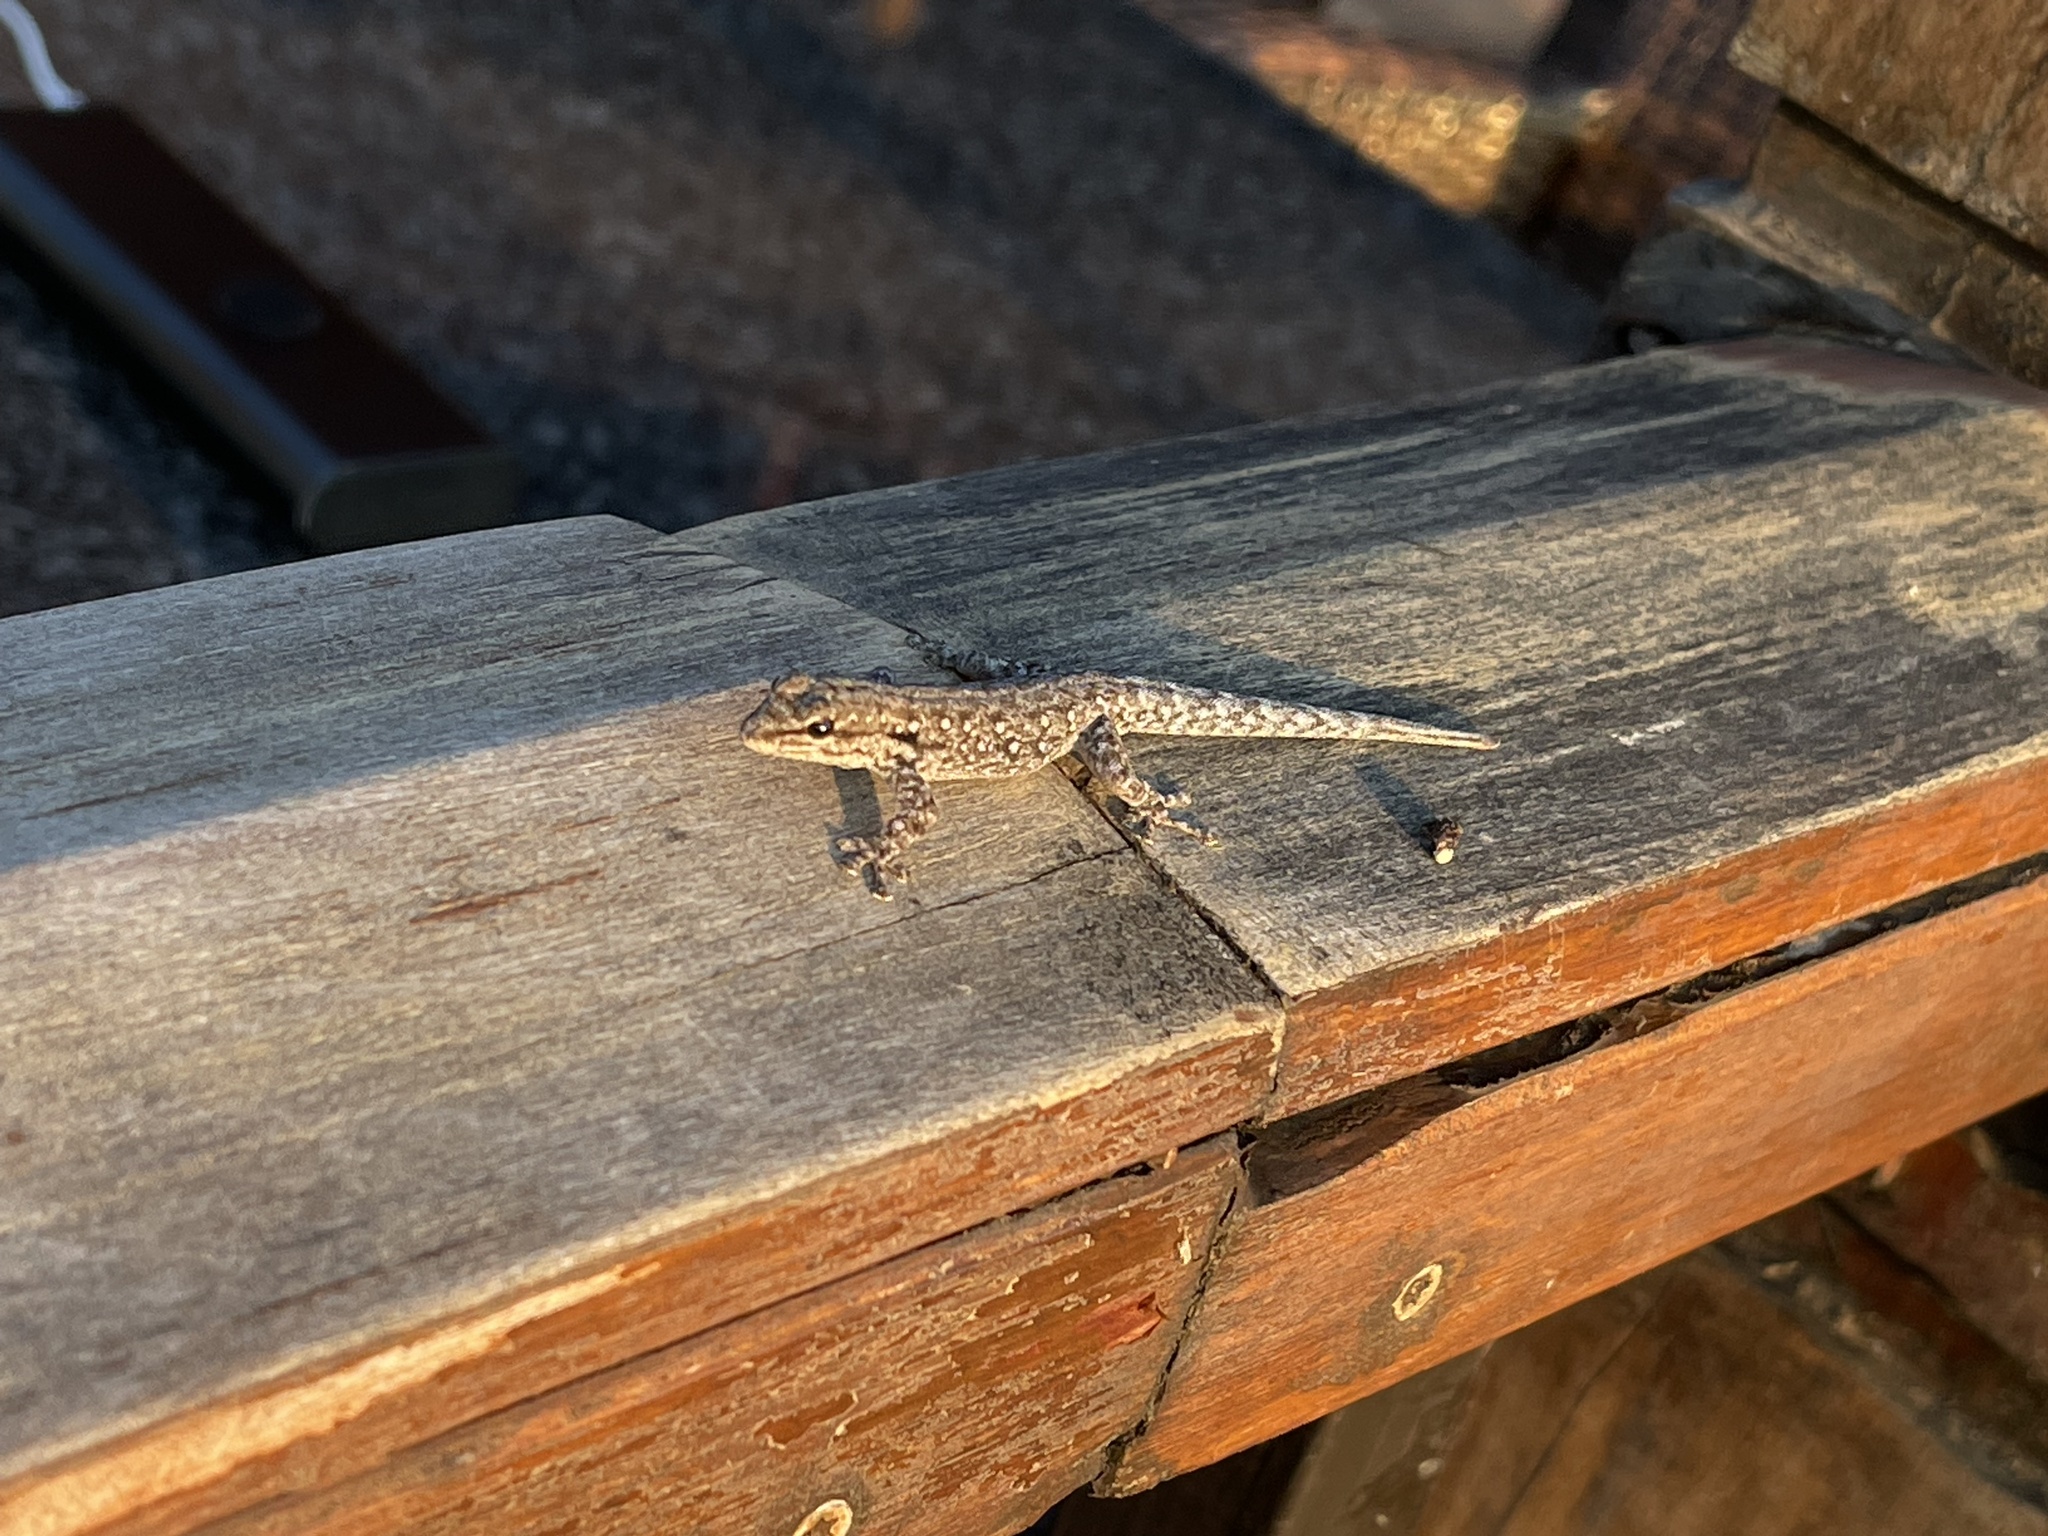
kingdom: Animalia
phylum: Chordata
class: Squamata
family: Gekkonidae
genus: Lygodactylus
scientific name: Lygodactylus chobiensis
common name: Okavango dwarf gecko
